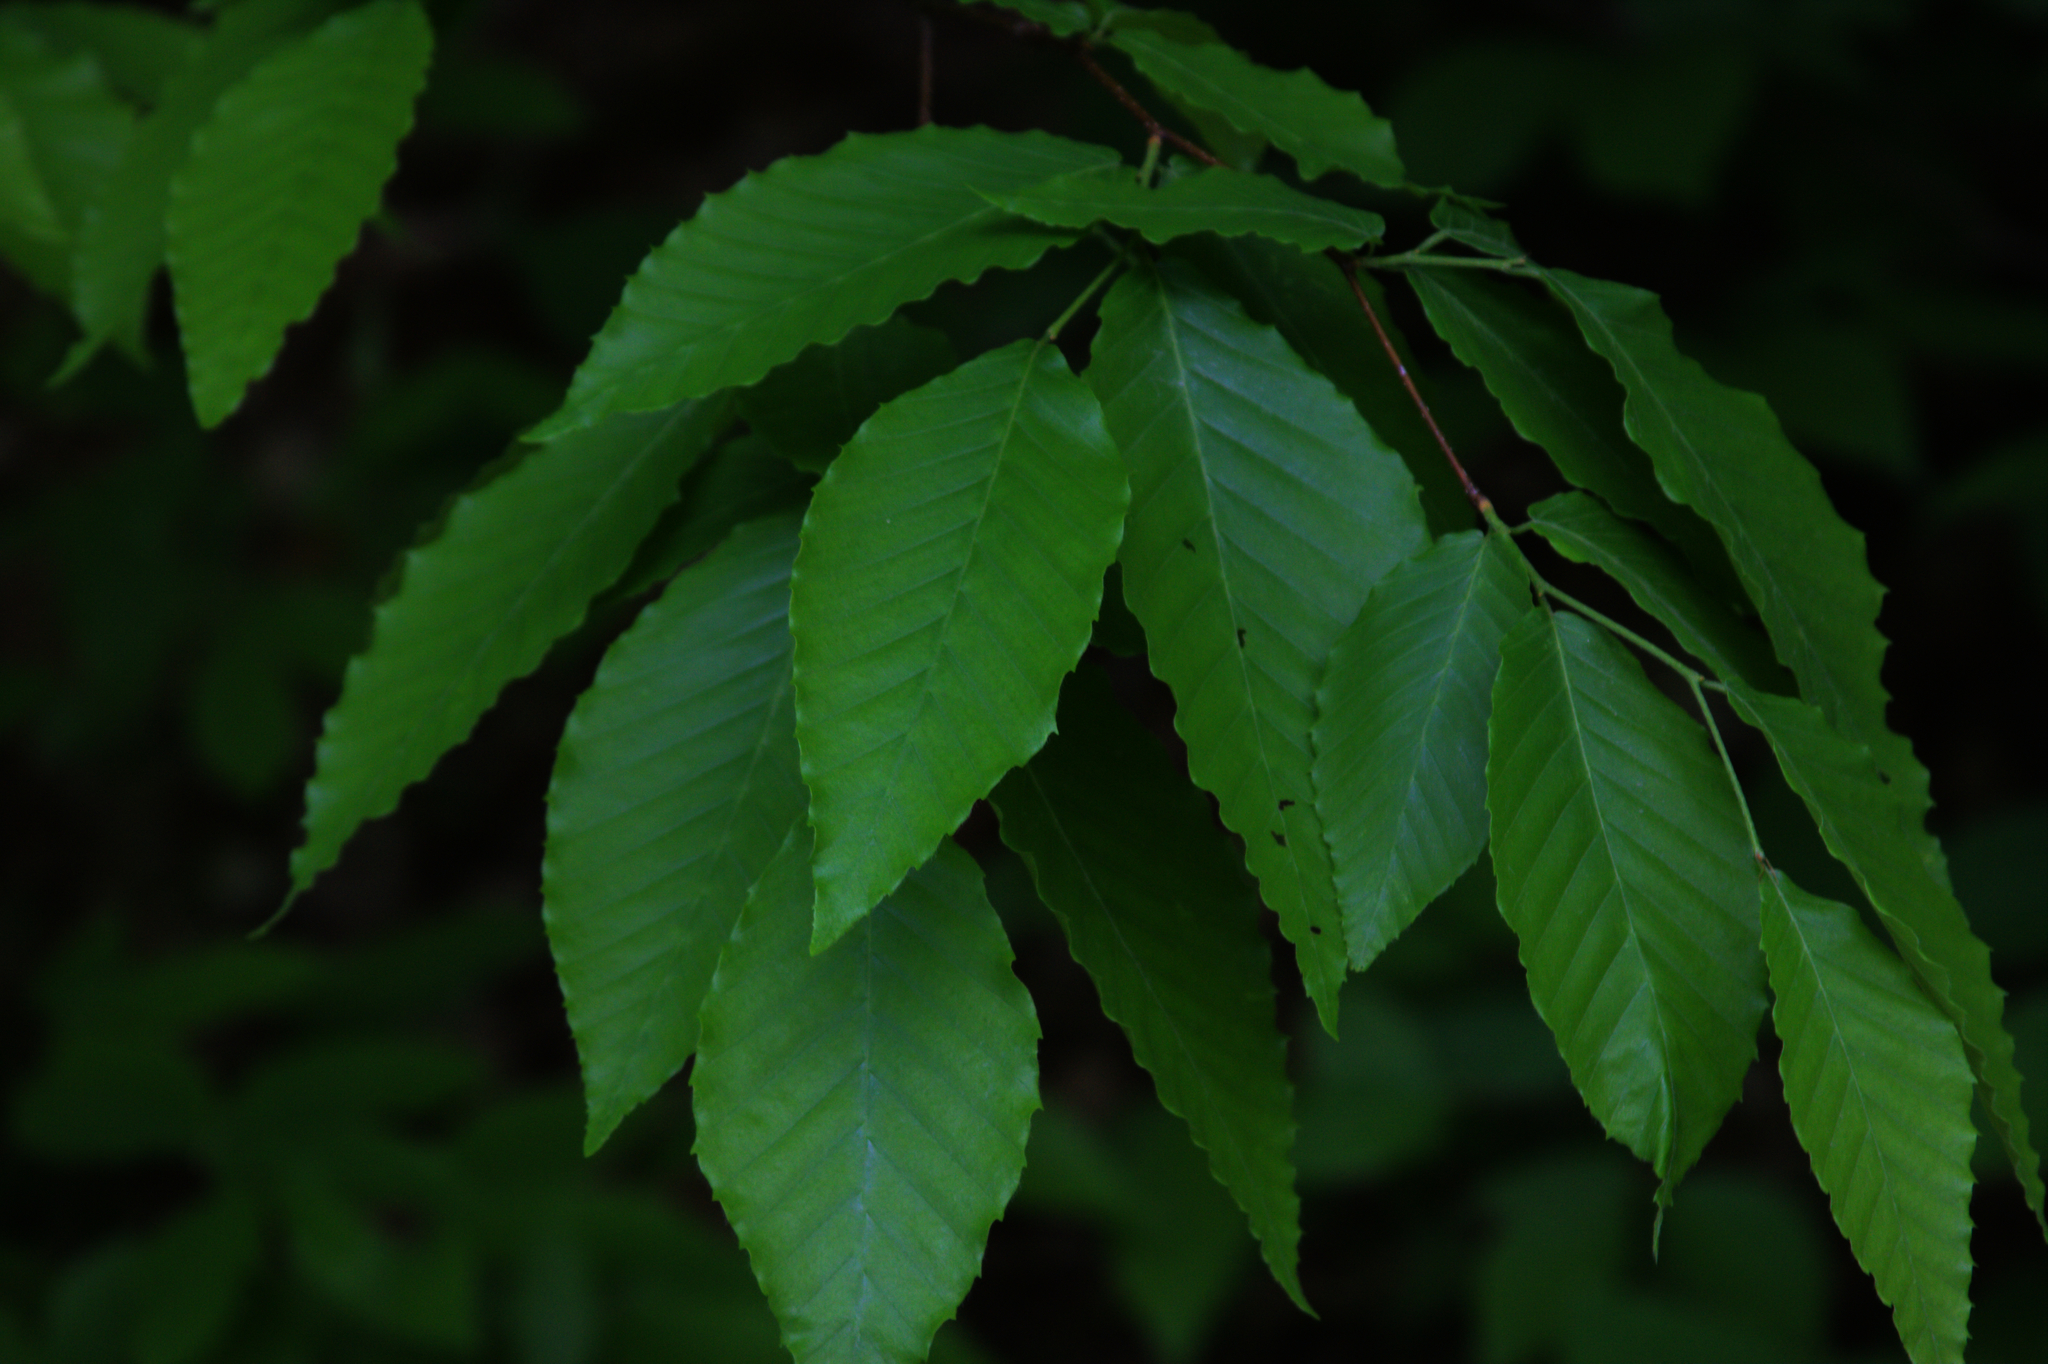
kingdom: Plantae
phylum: Tracheophyta
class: Magnoliopsida
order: Fagales
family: Fagaceae
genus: Fagus
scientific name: Fagus grandifolia
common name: American beech
